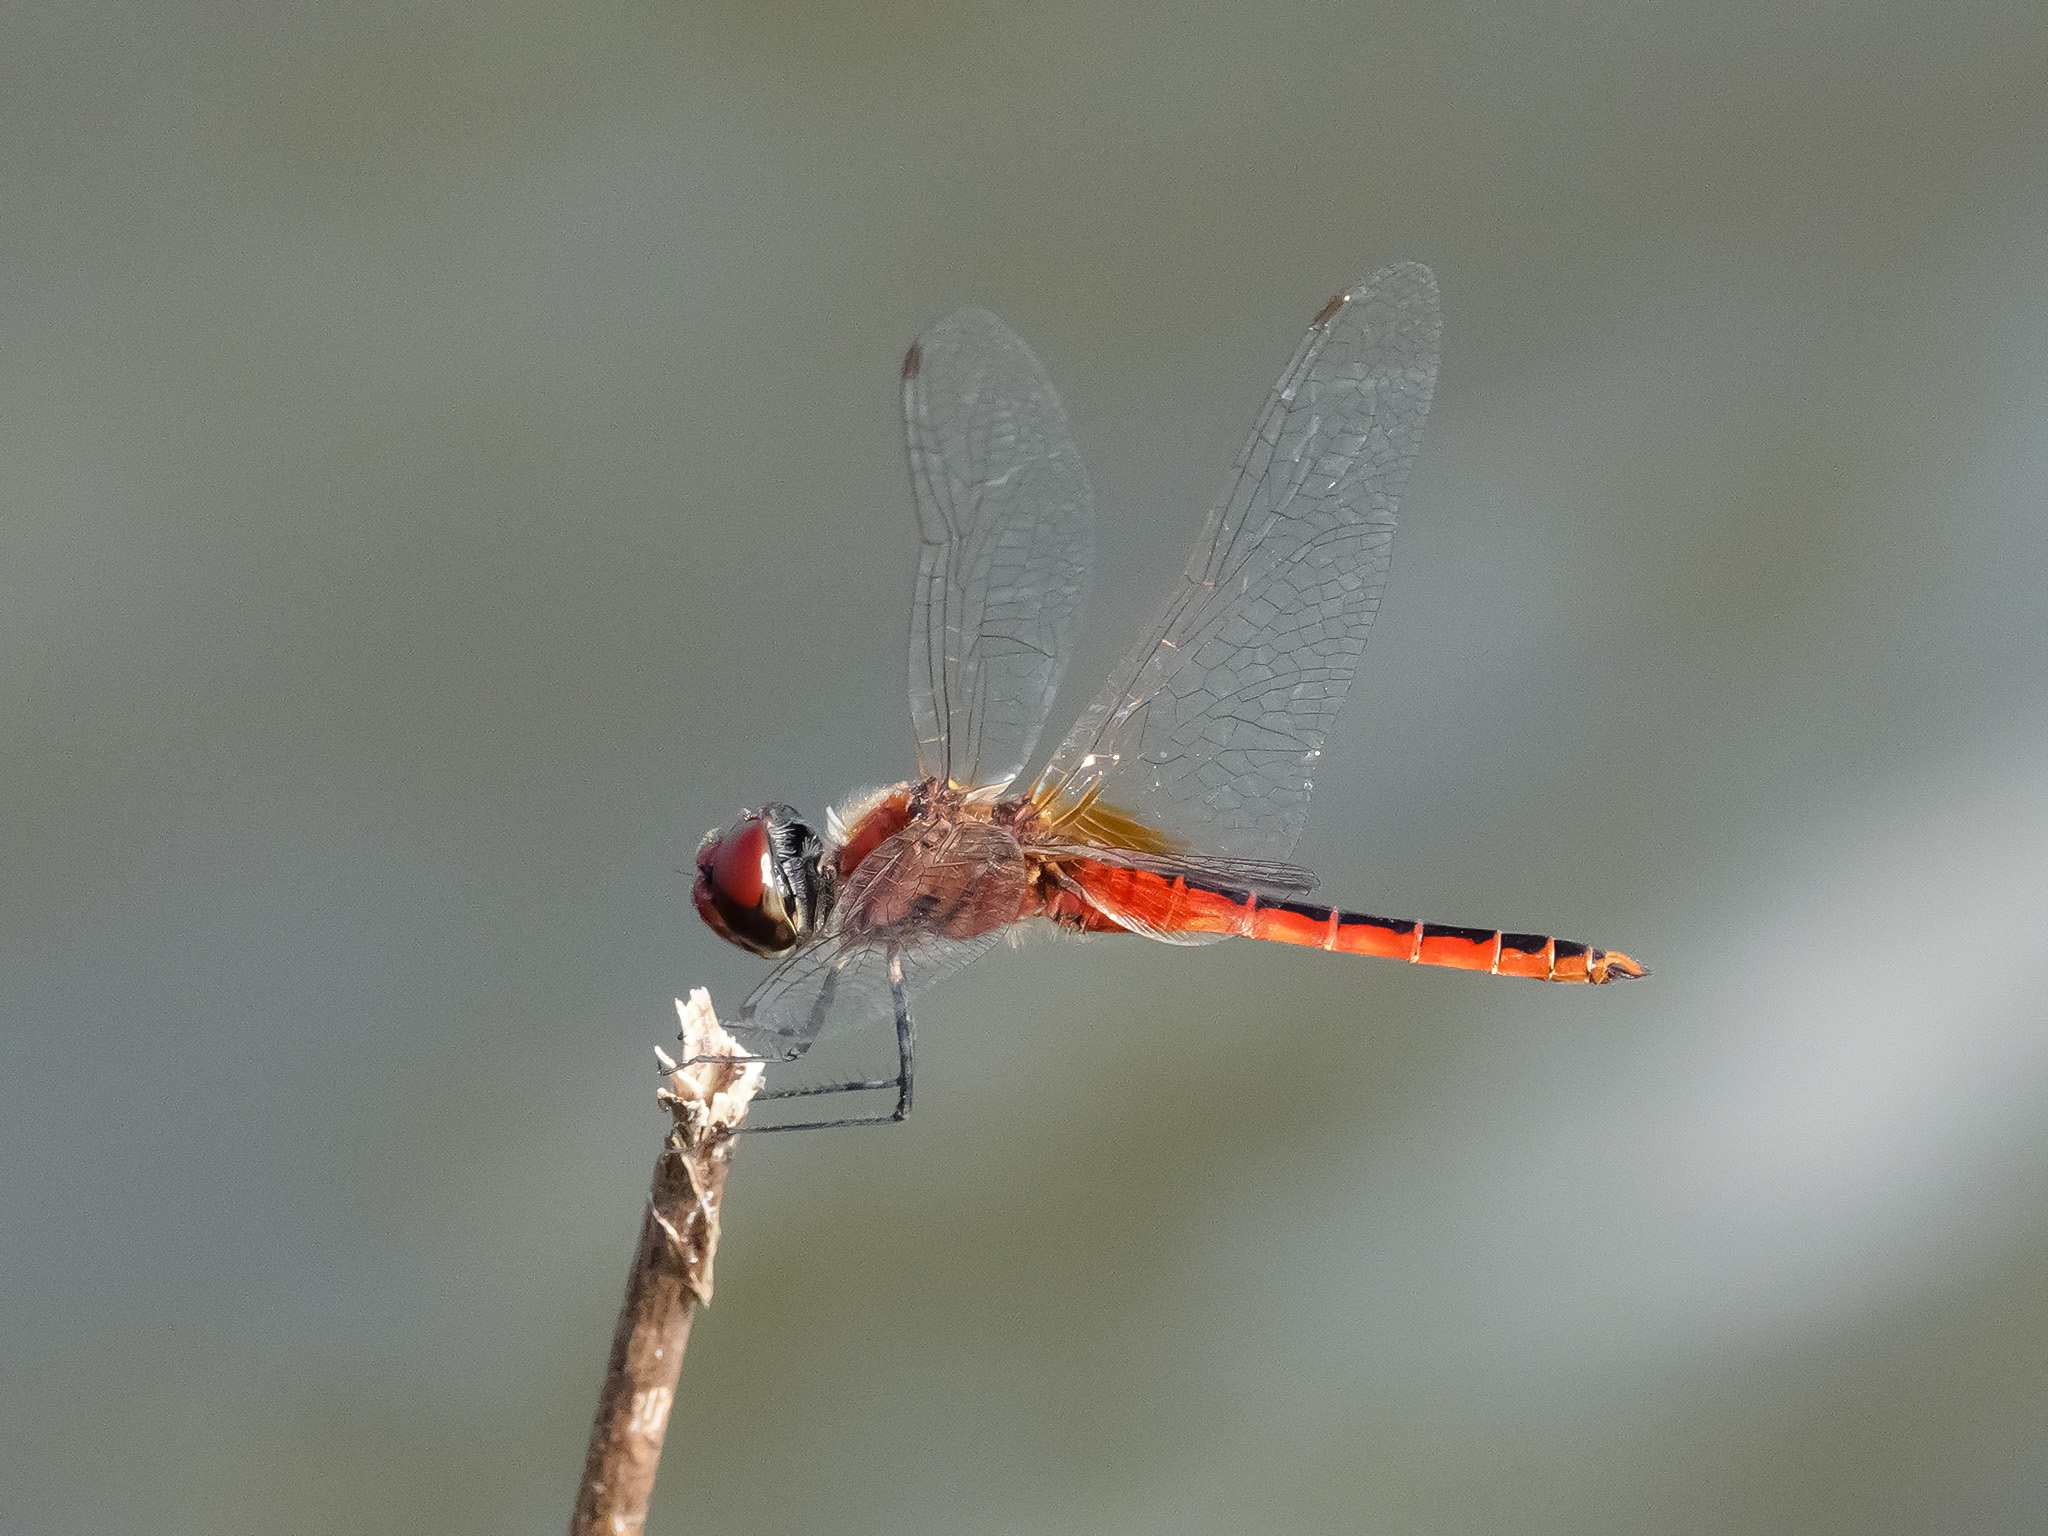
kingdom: Animalia
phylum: Arthropoda
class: Insecta
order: Odonata
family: Libellulidae
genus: Macrodiplax
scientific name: Macrodiplax cora
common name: Coastal glider
